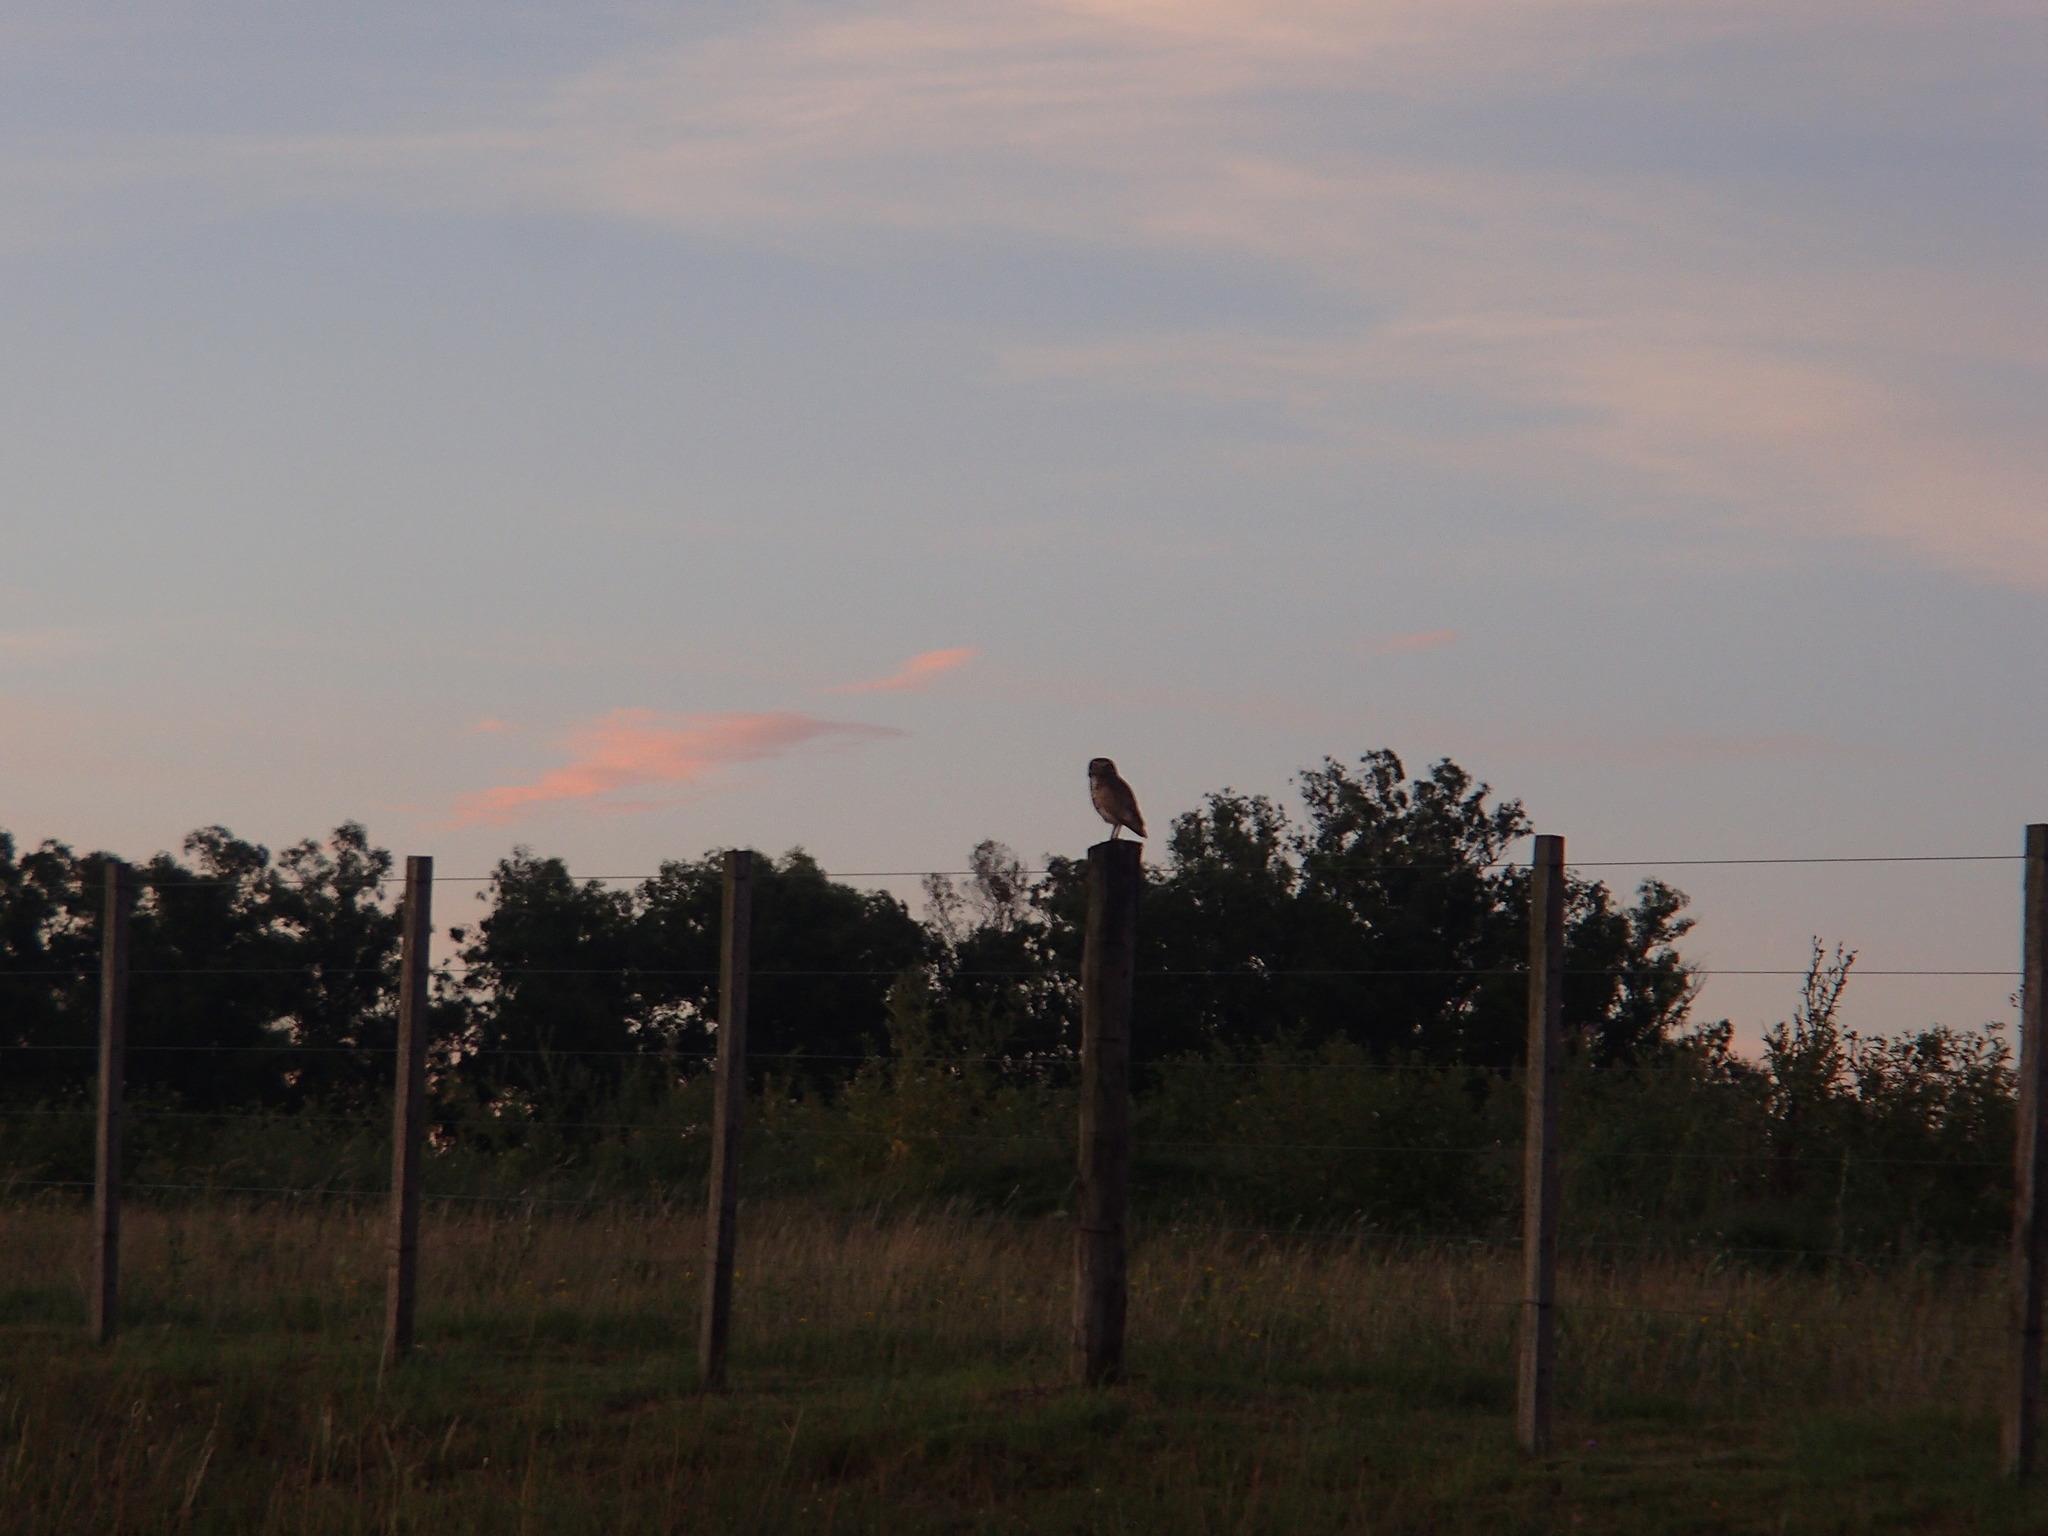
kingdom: Animalia
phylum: Chordata
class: Aves
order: Strigiformes
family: Strigidae
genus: Athene
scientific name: Athene cunicularia
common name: Burrowing owl
